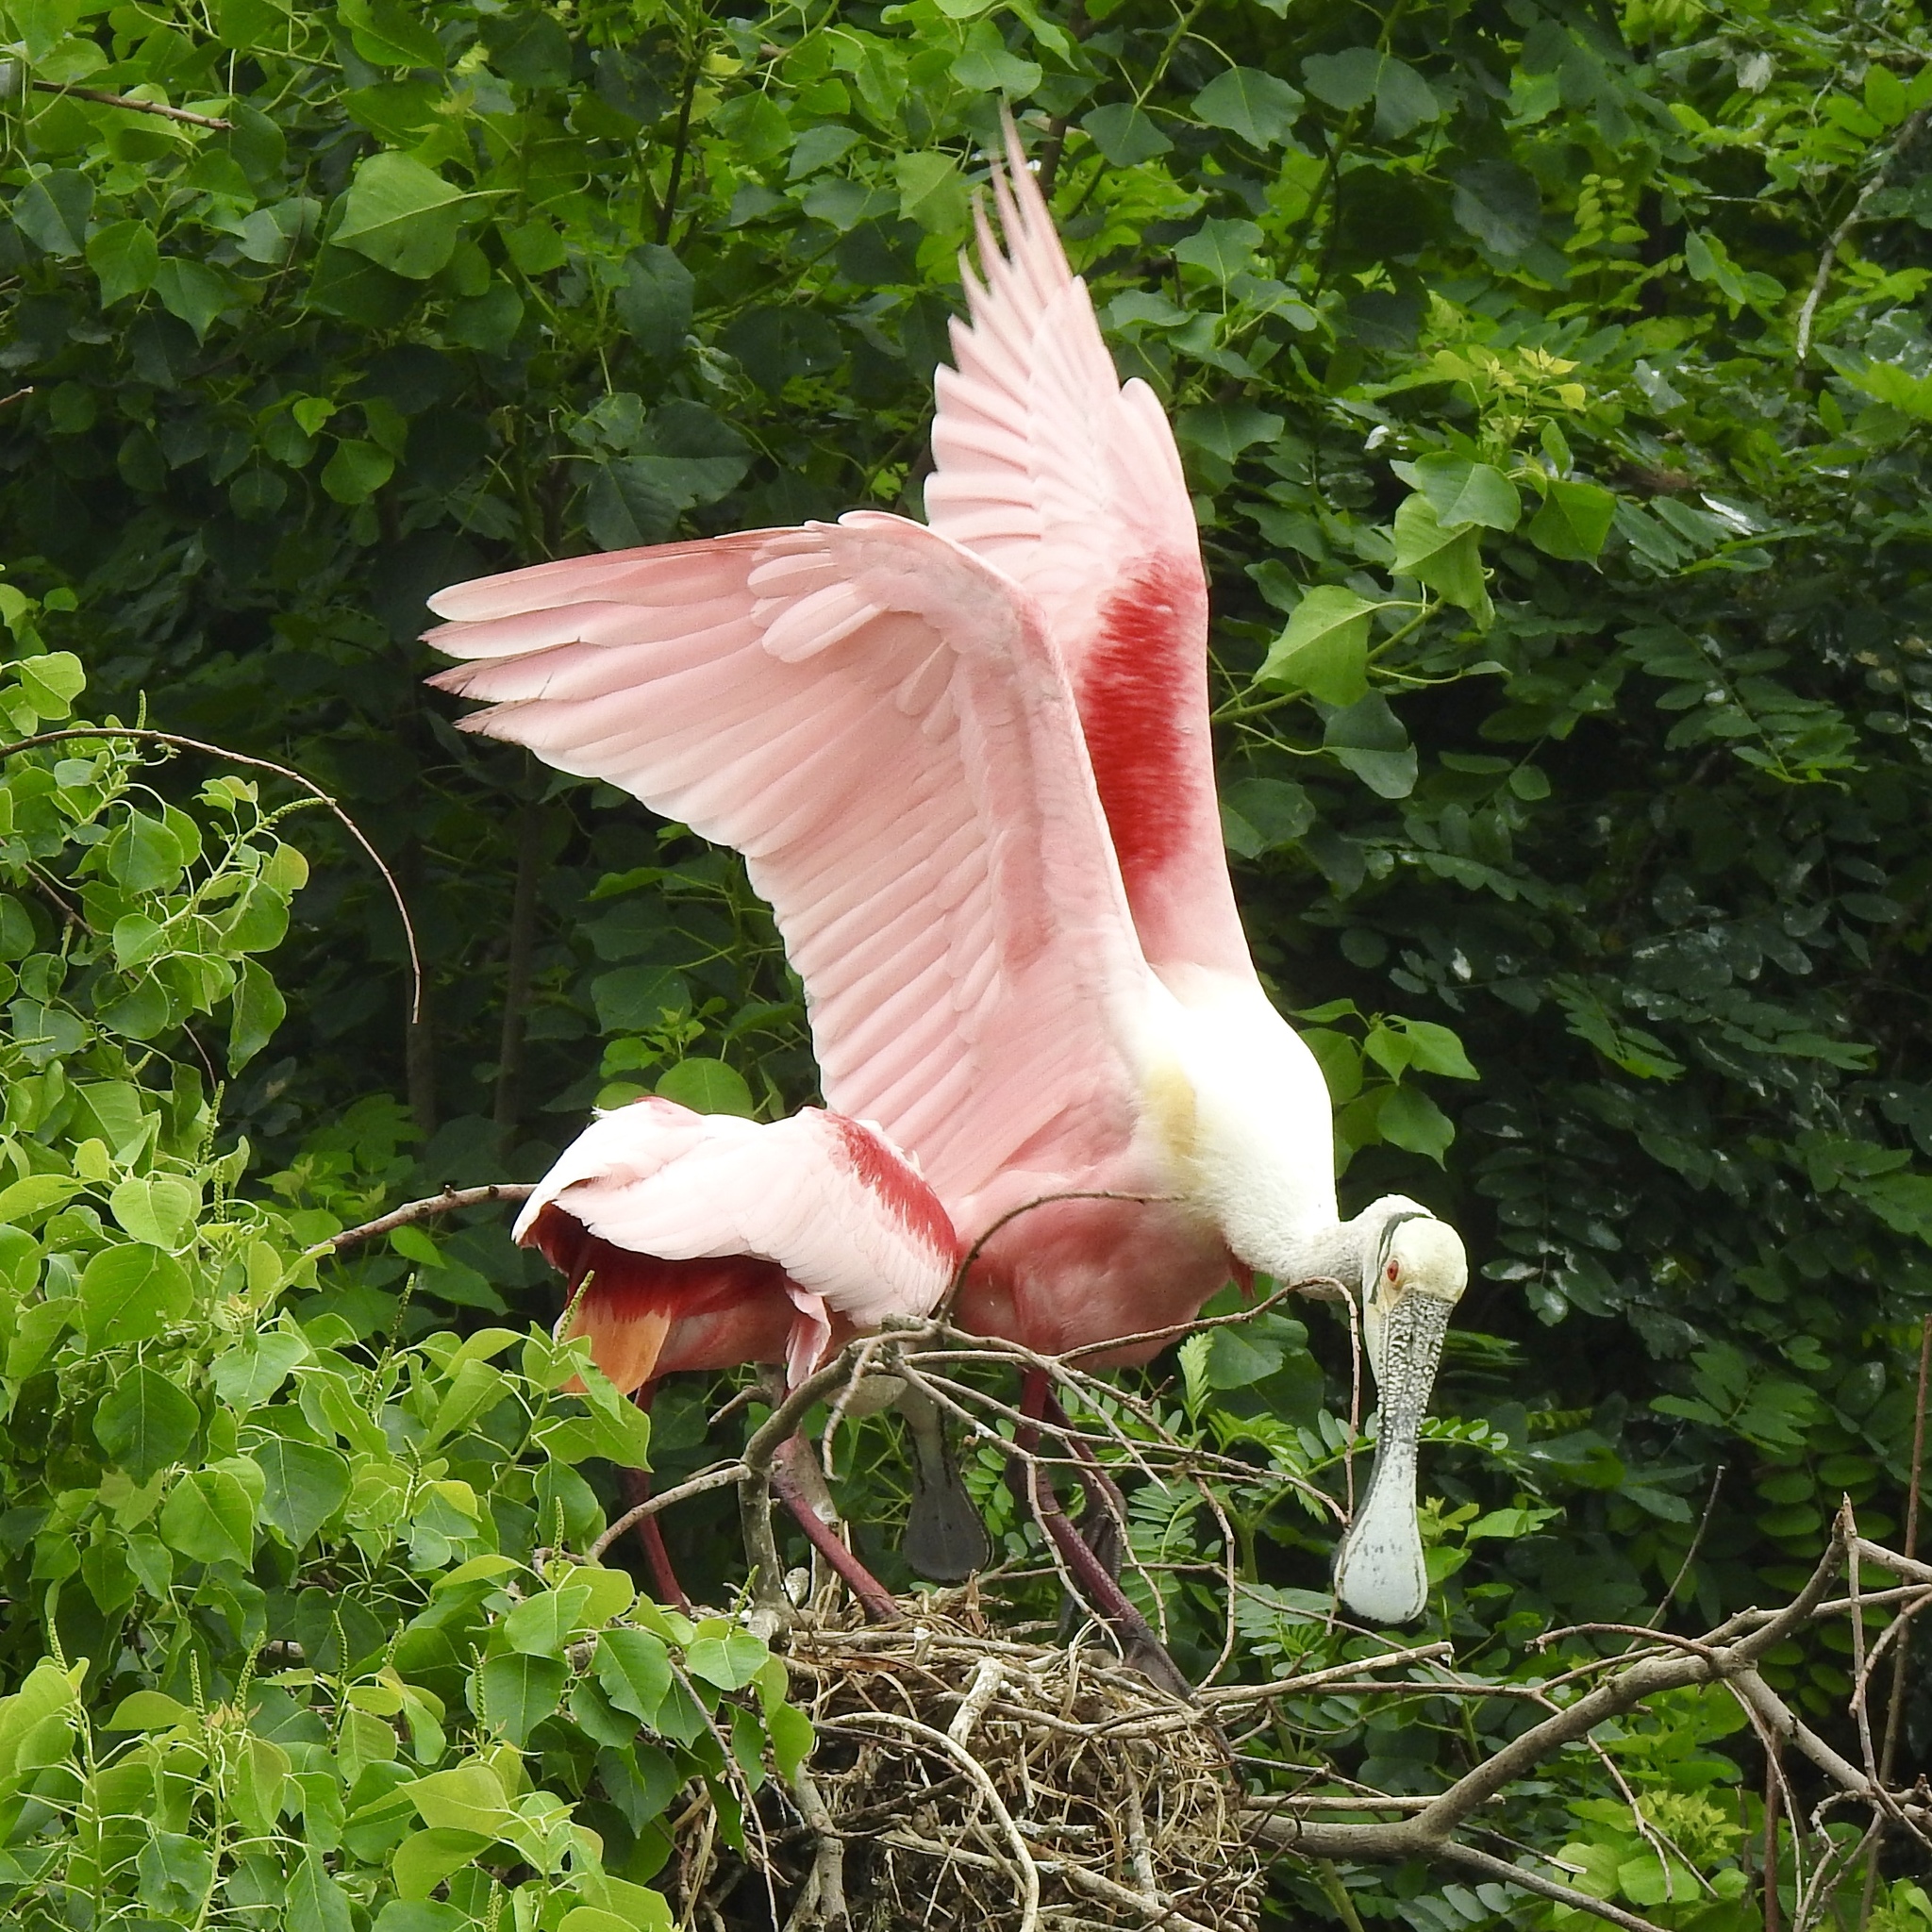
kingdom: Animalia
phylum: Chordata
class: Aves
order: Pelecaniformes
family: Threskiornithidae
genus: Platalea
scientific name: Platalea ajaja
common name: Roseate spoonbill
